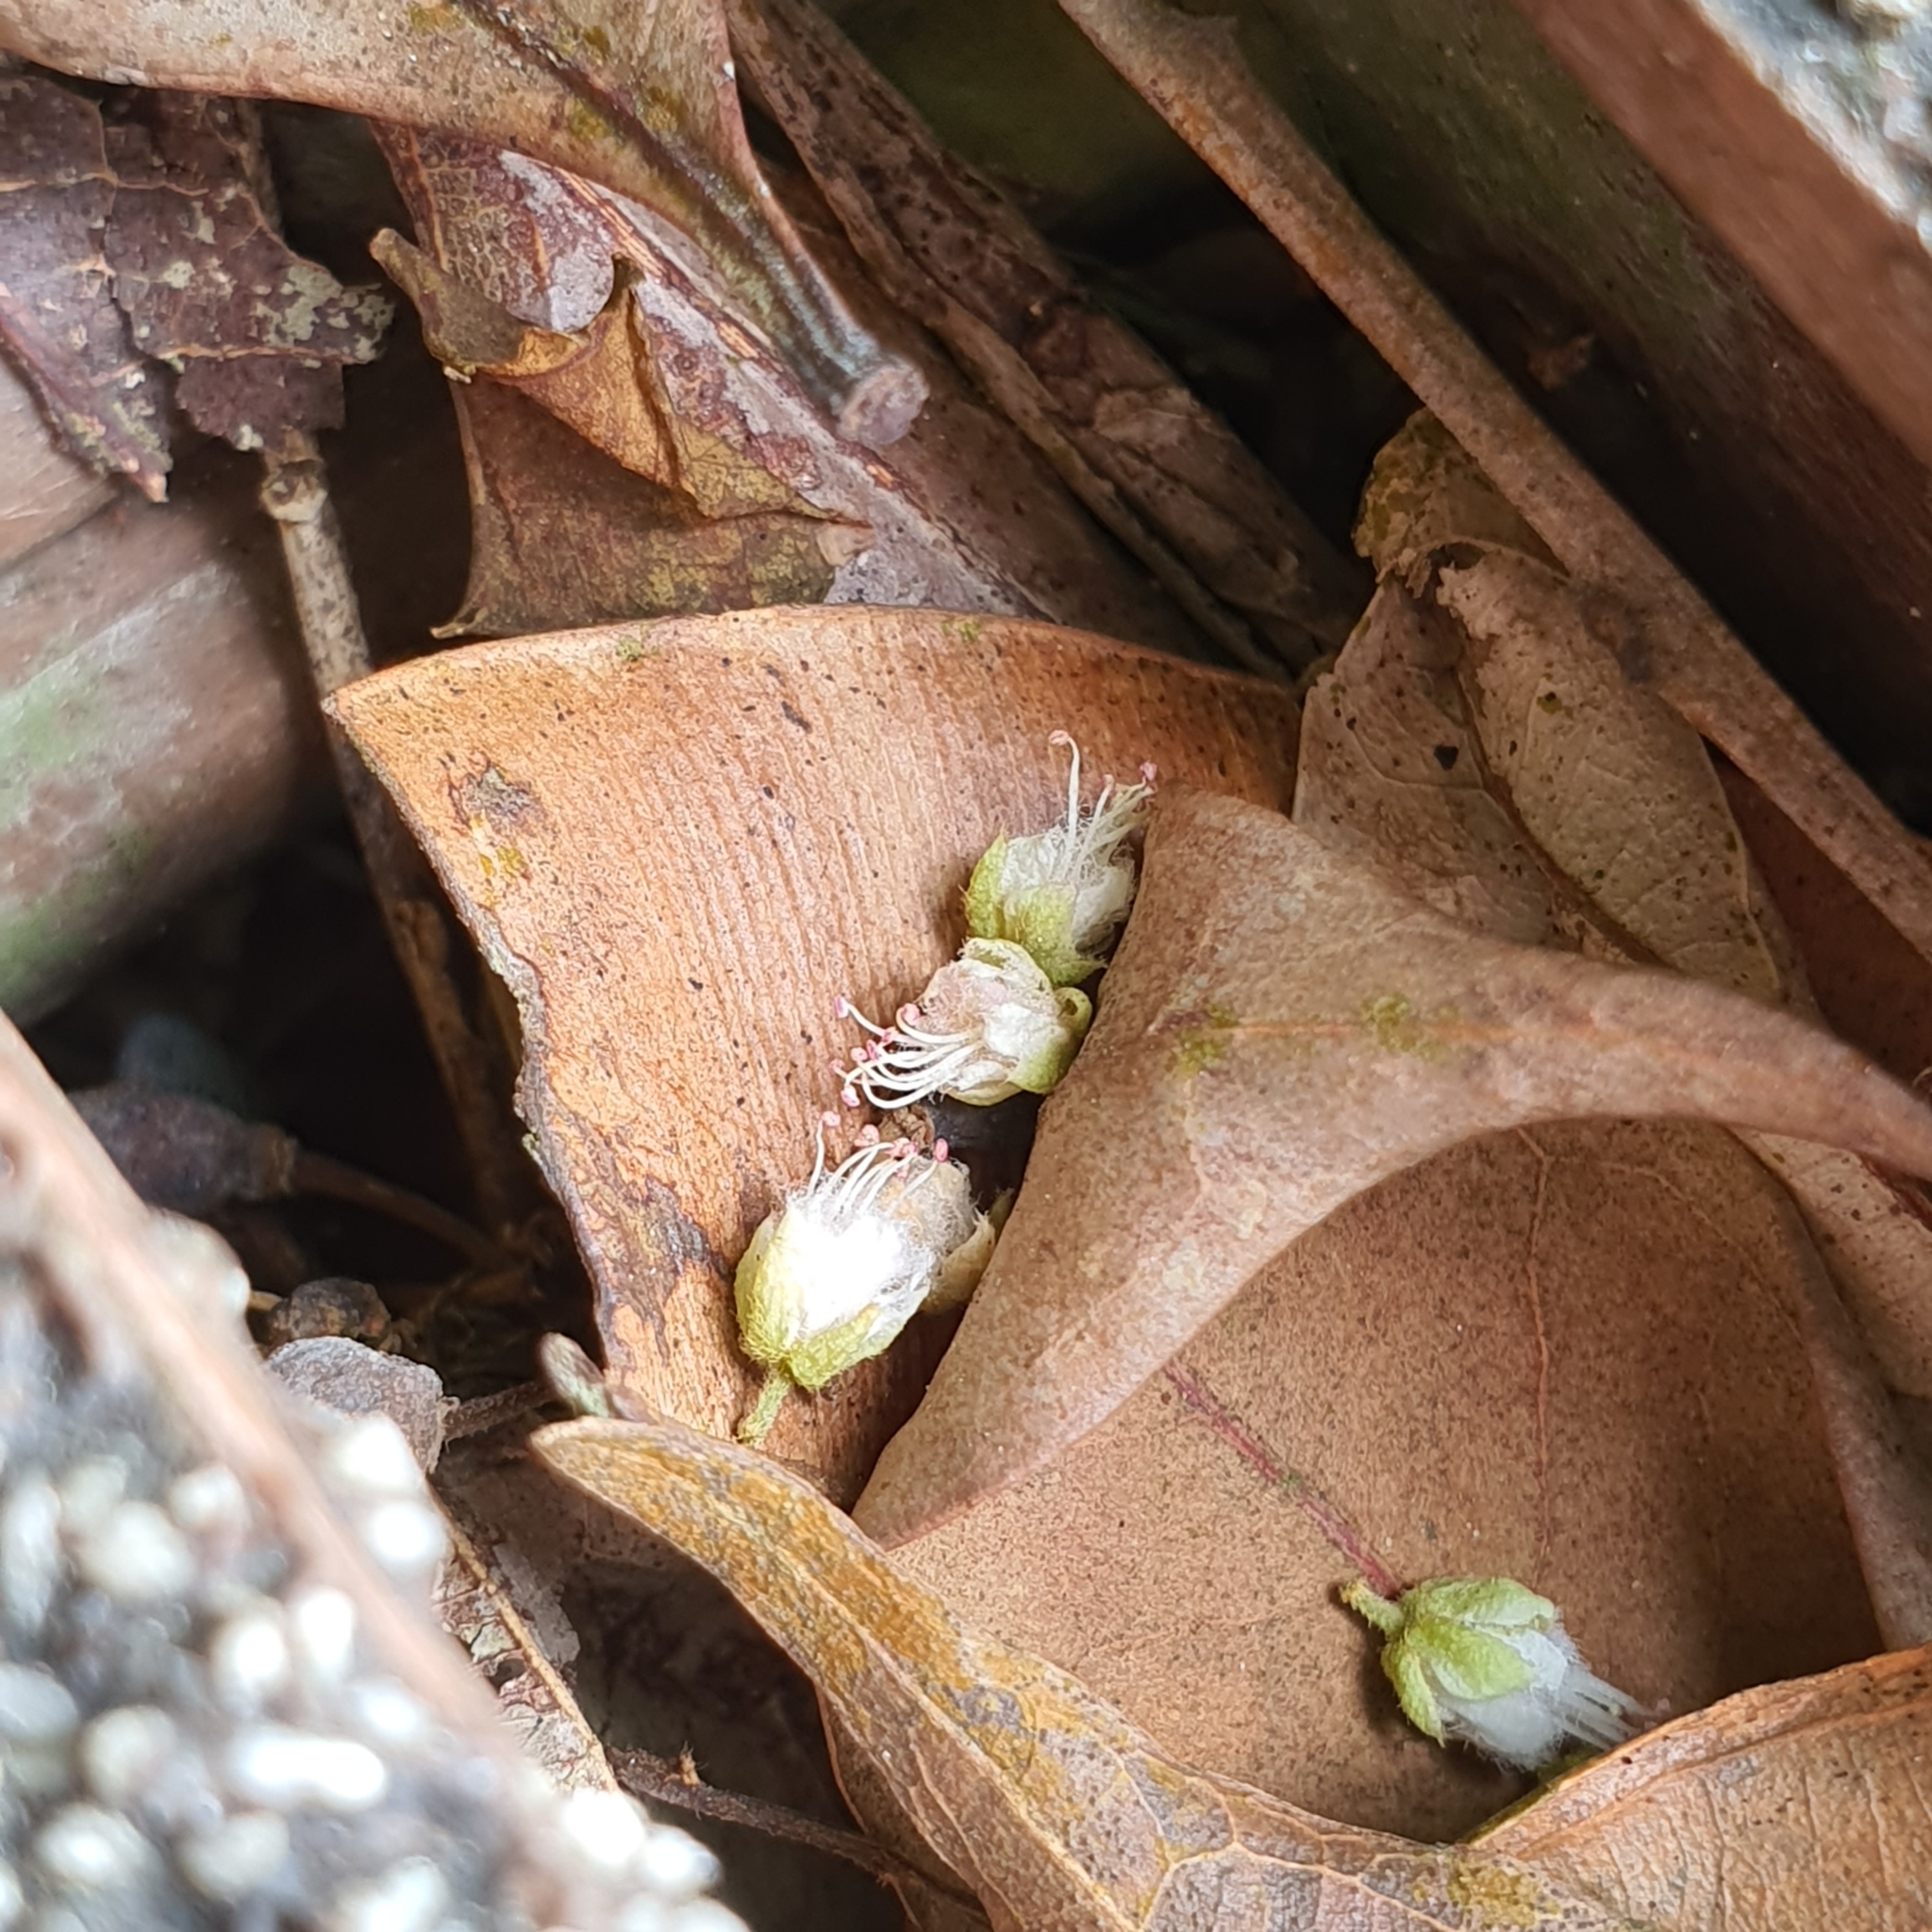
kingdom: Plantae
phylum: Tracheophyta
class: Magnoliopsida
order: Sapindales
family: Sapindaceae
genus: Guioa
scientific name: Guioa pubescens
